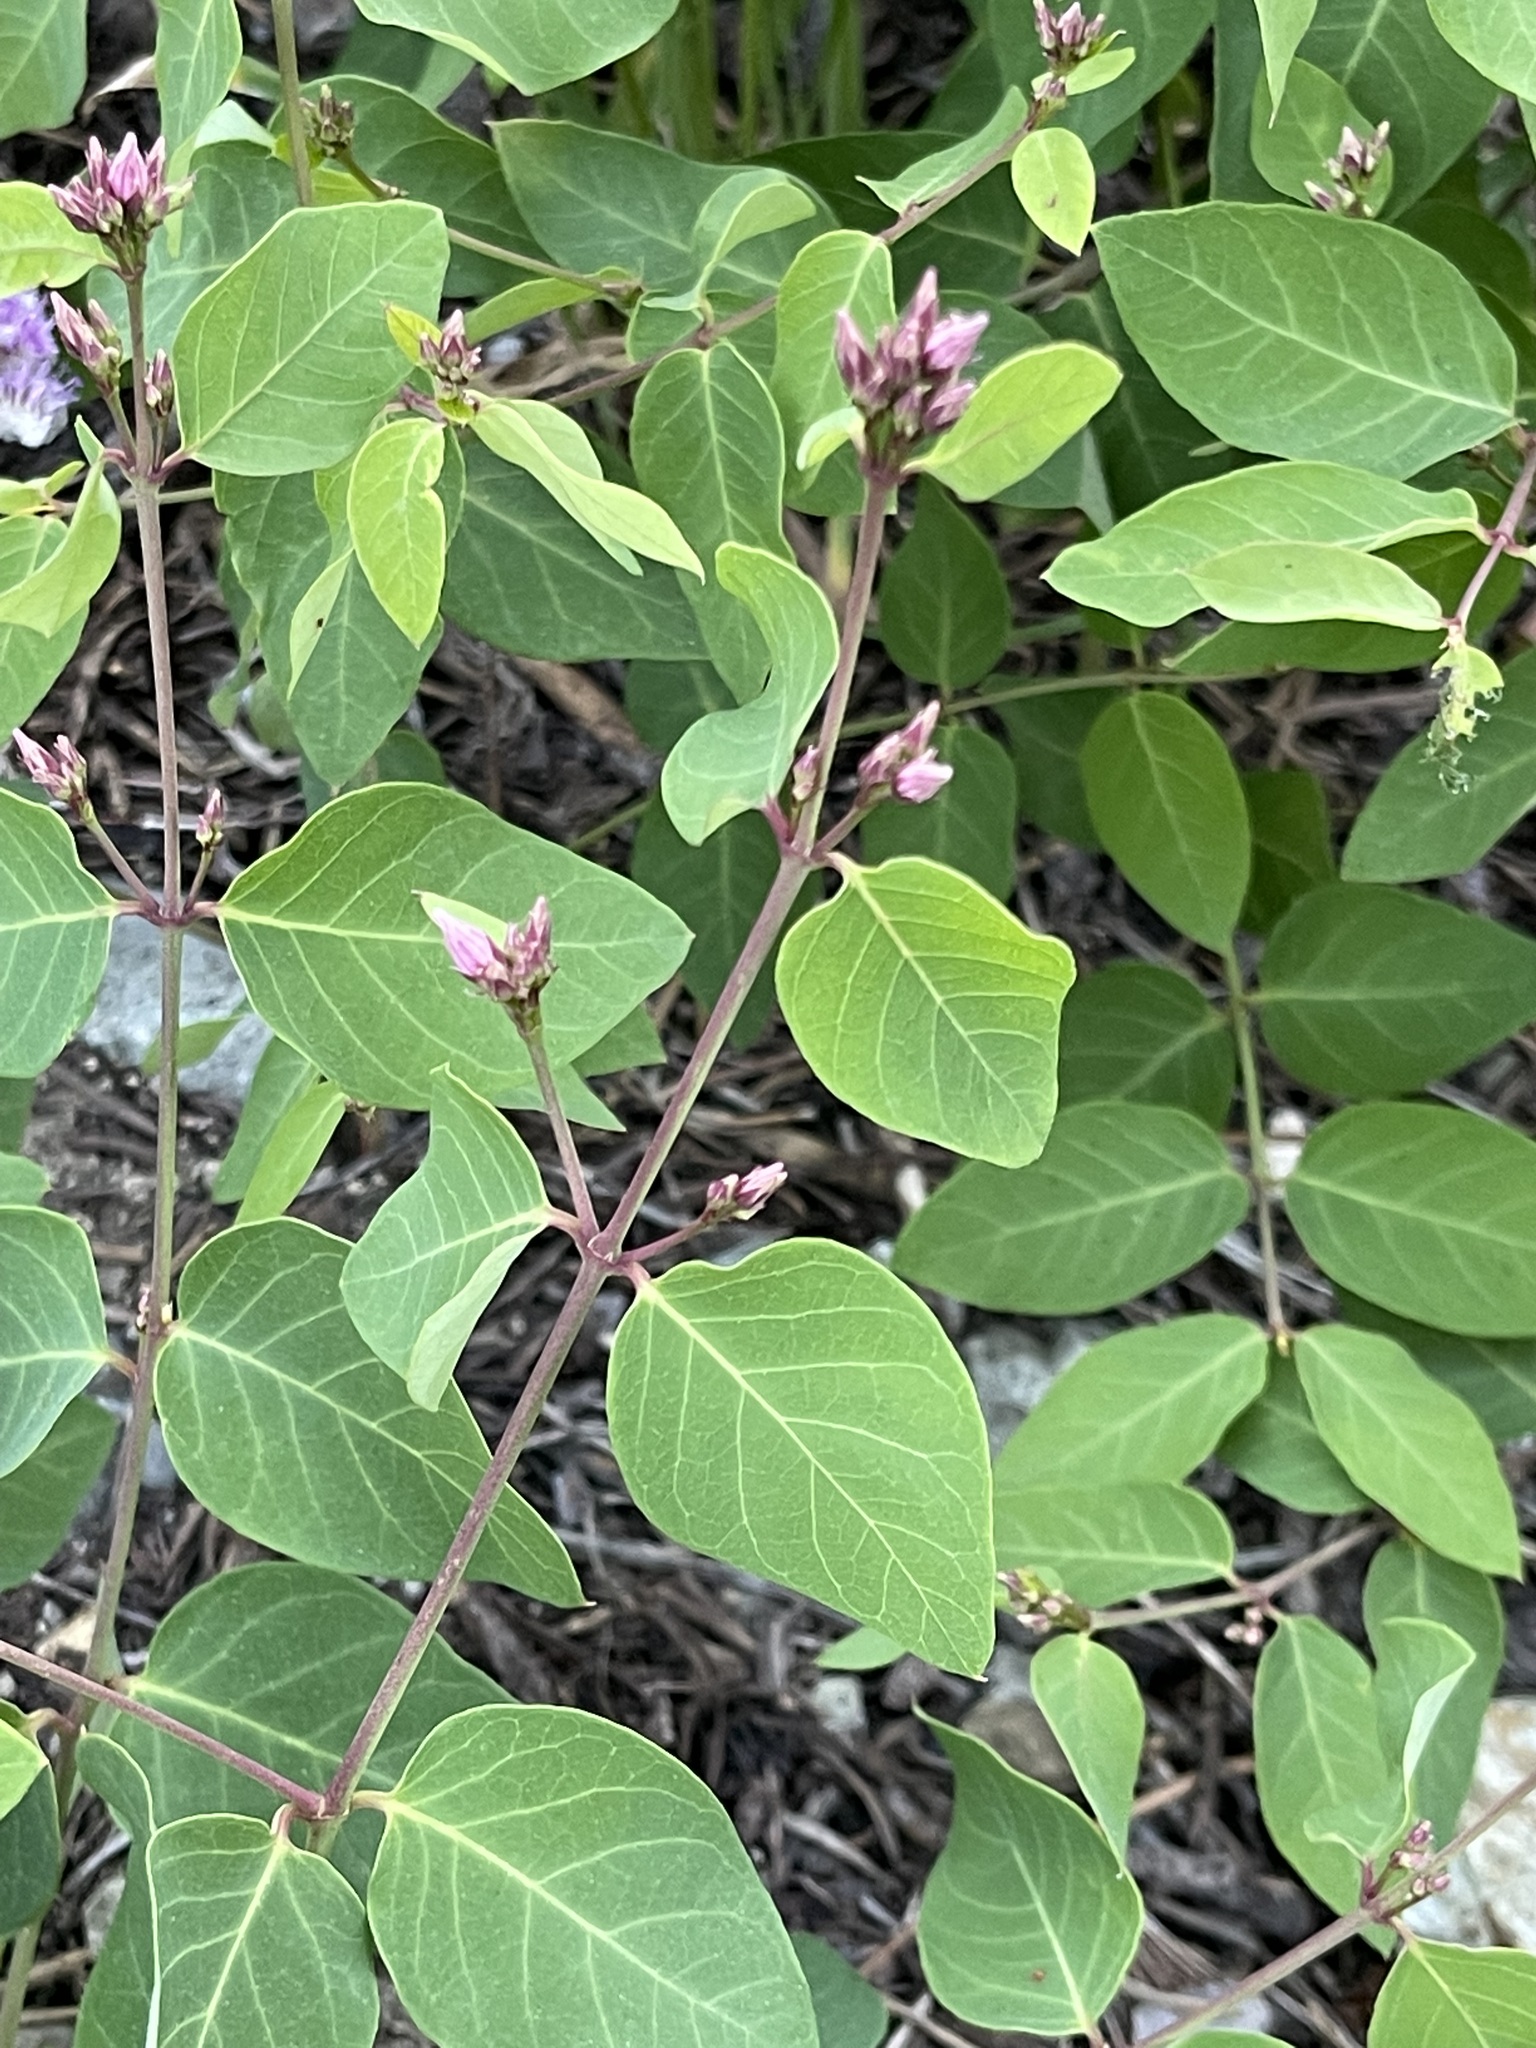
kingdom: Plantae
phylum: Tracheophyta
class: Magnoliopsida
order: Gentianales
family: Apocynaceae
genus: Apocynum
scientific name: Apocynum androsaemifolium
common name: Spreading dogbane
